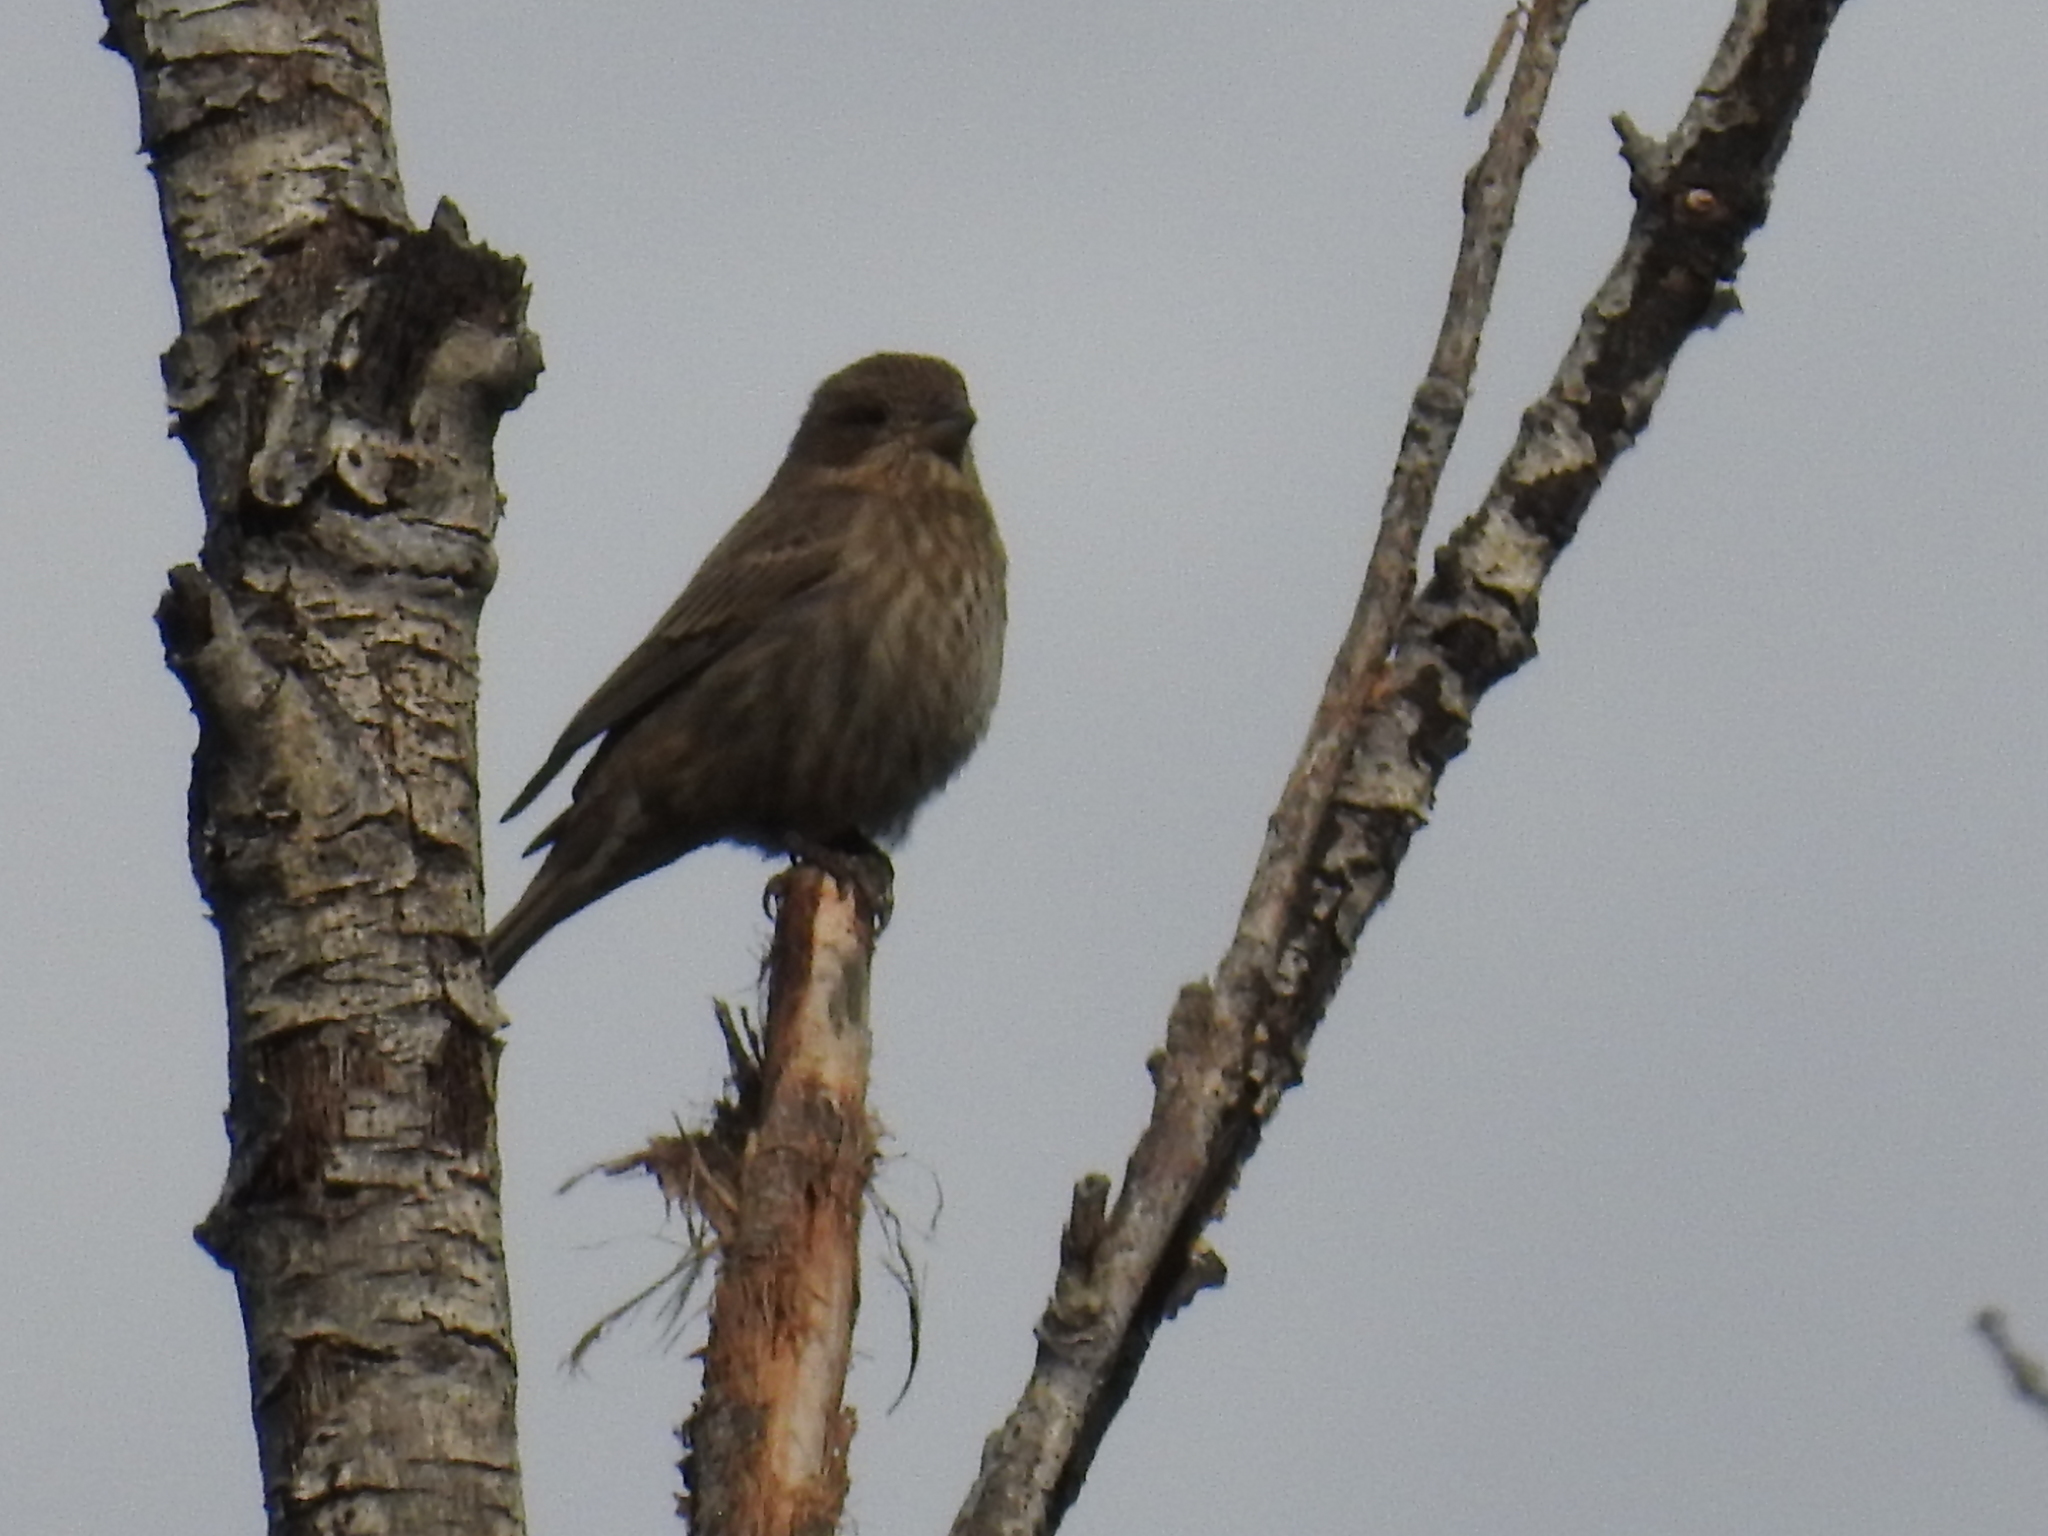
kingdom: Animalia
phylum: Chordata
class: Aves
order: Passeriformes
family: Fringillidae
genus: Haemorhous
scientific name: Haemorhous mexicanus
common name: House finch
